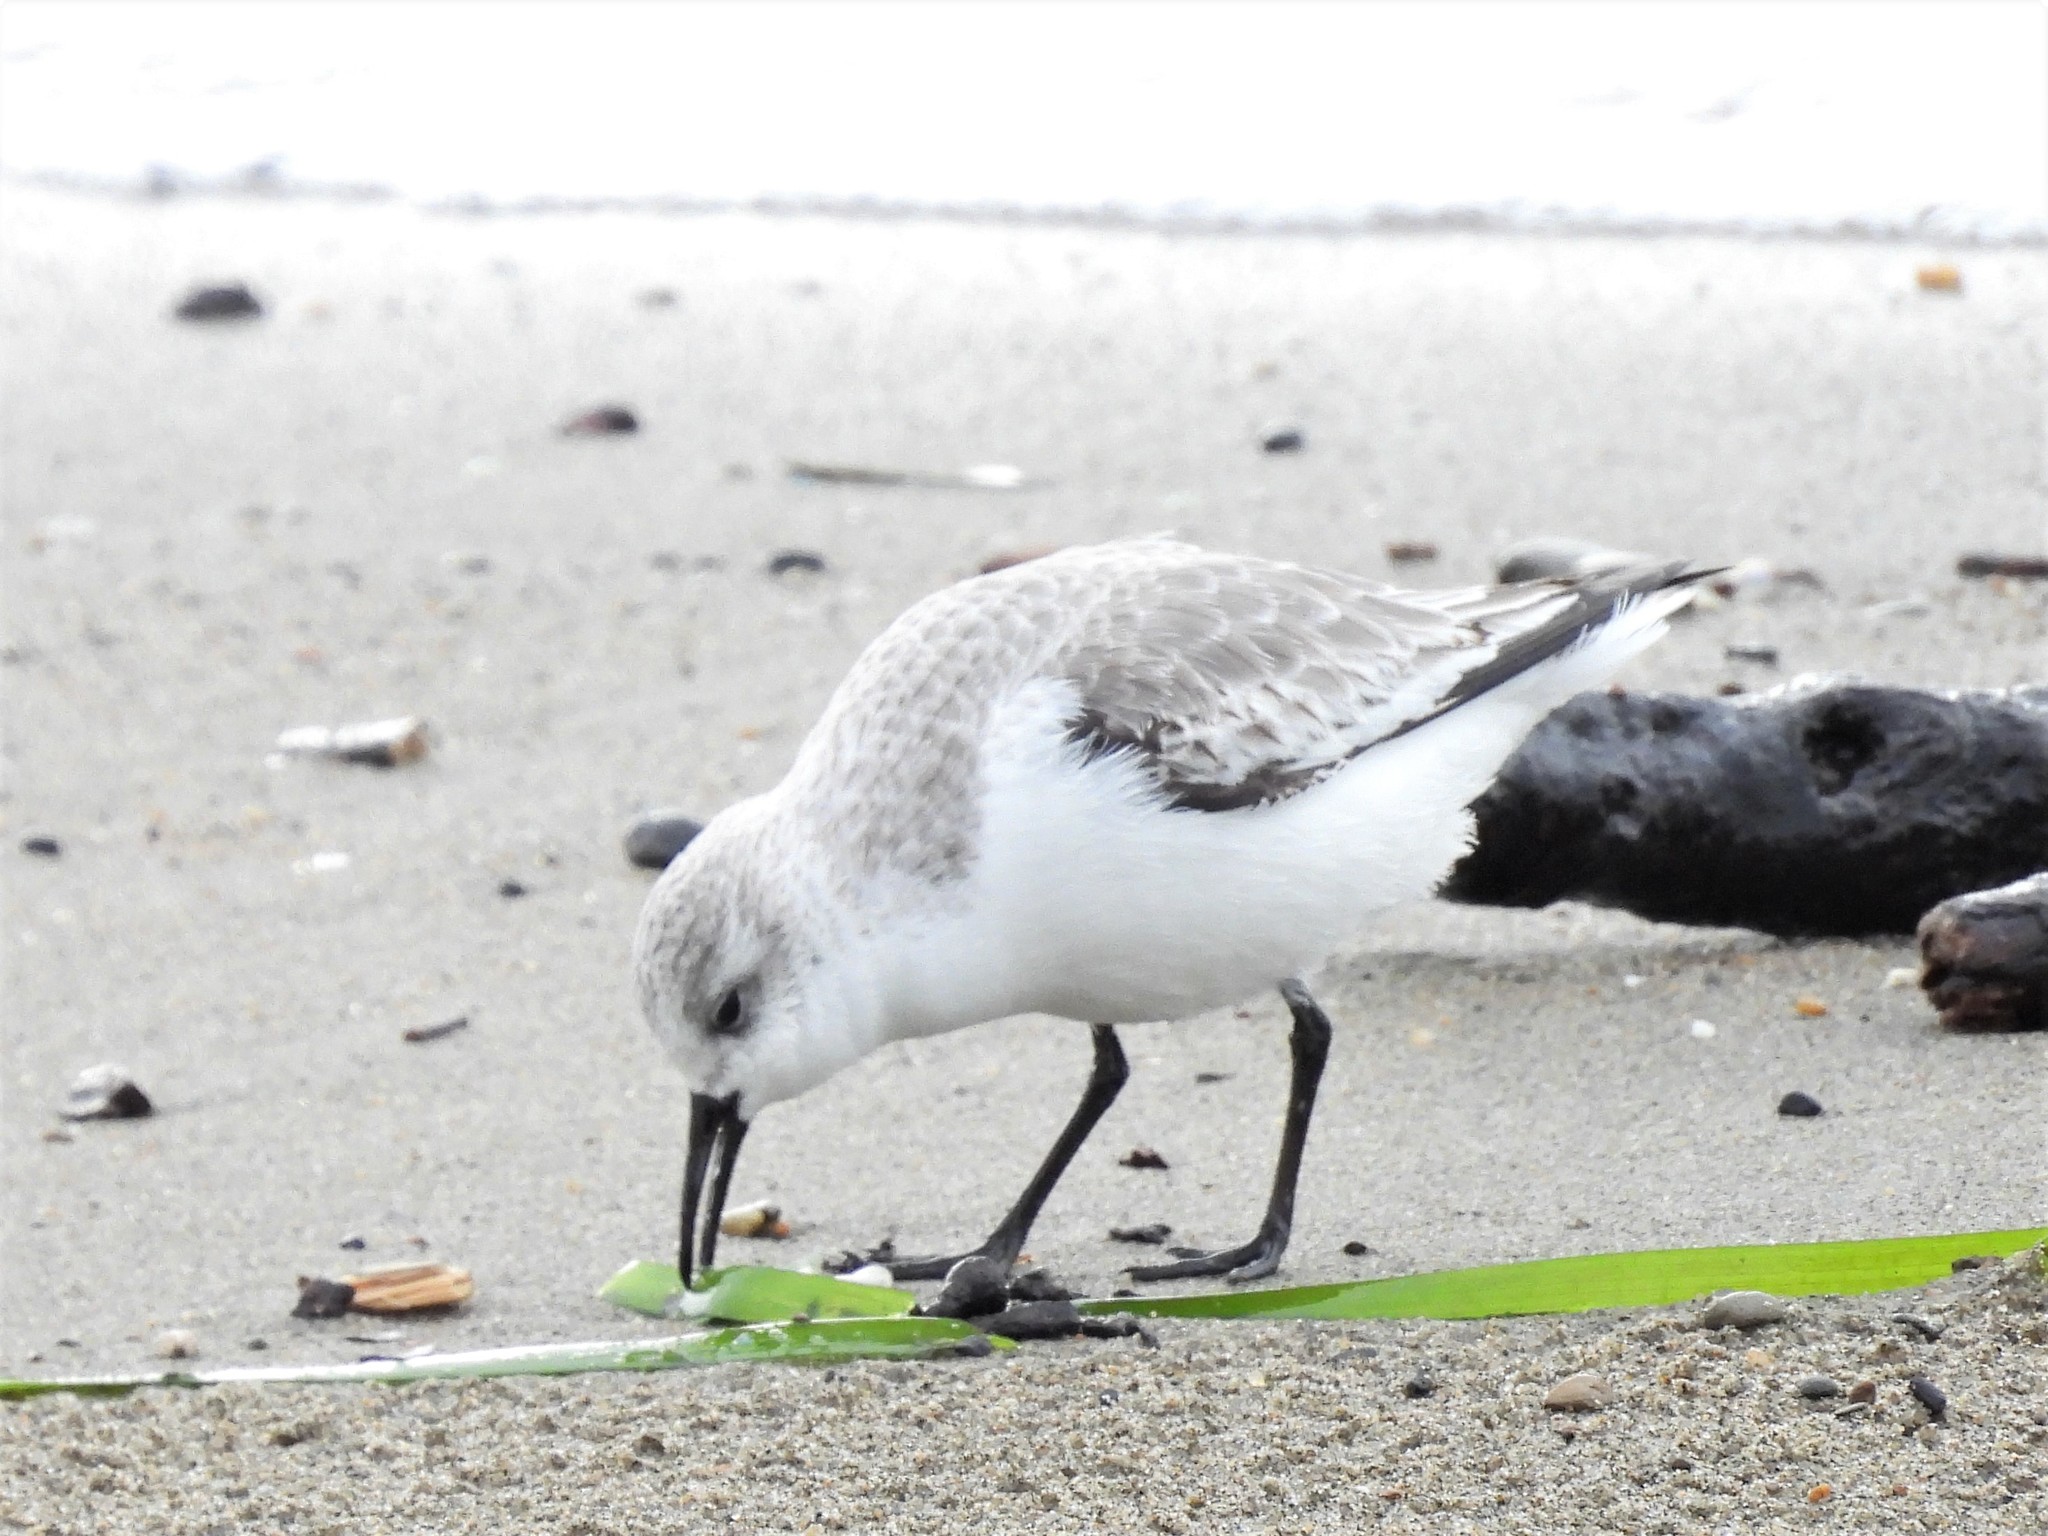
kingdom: Animalia
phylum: Chordata
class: Aves
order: Charadriiformes
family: Scolopacidae
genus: Calidris
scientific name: Calidris alba
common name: Sanderling
